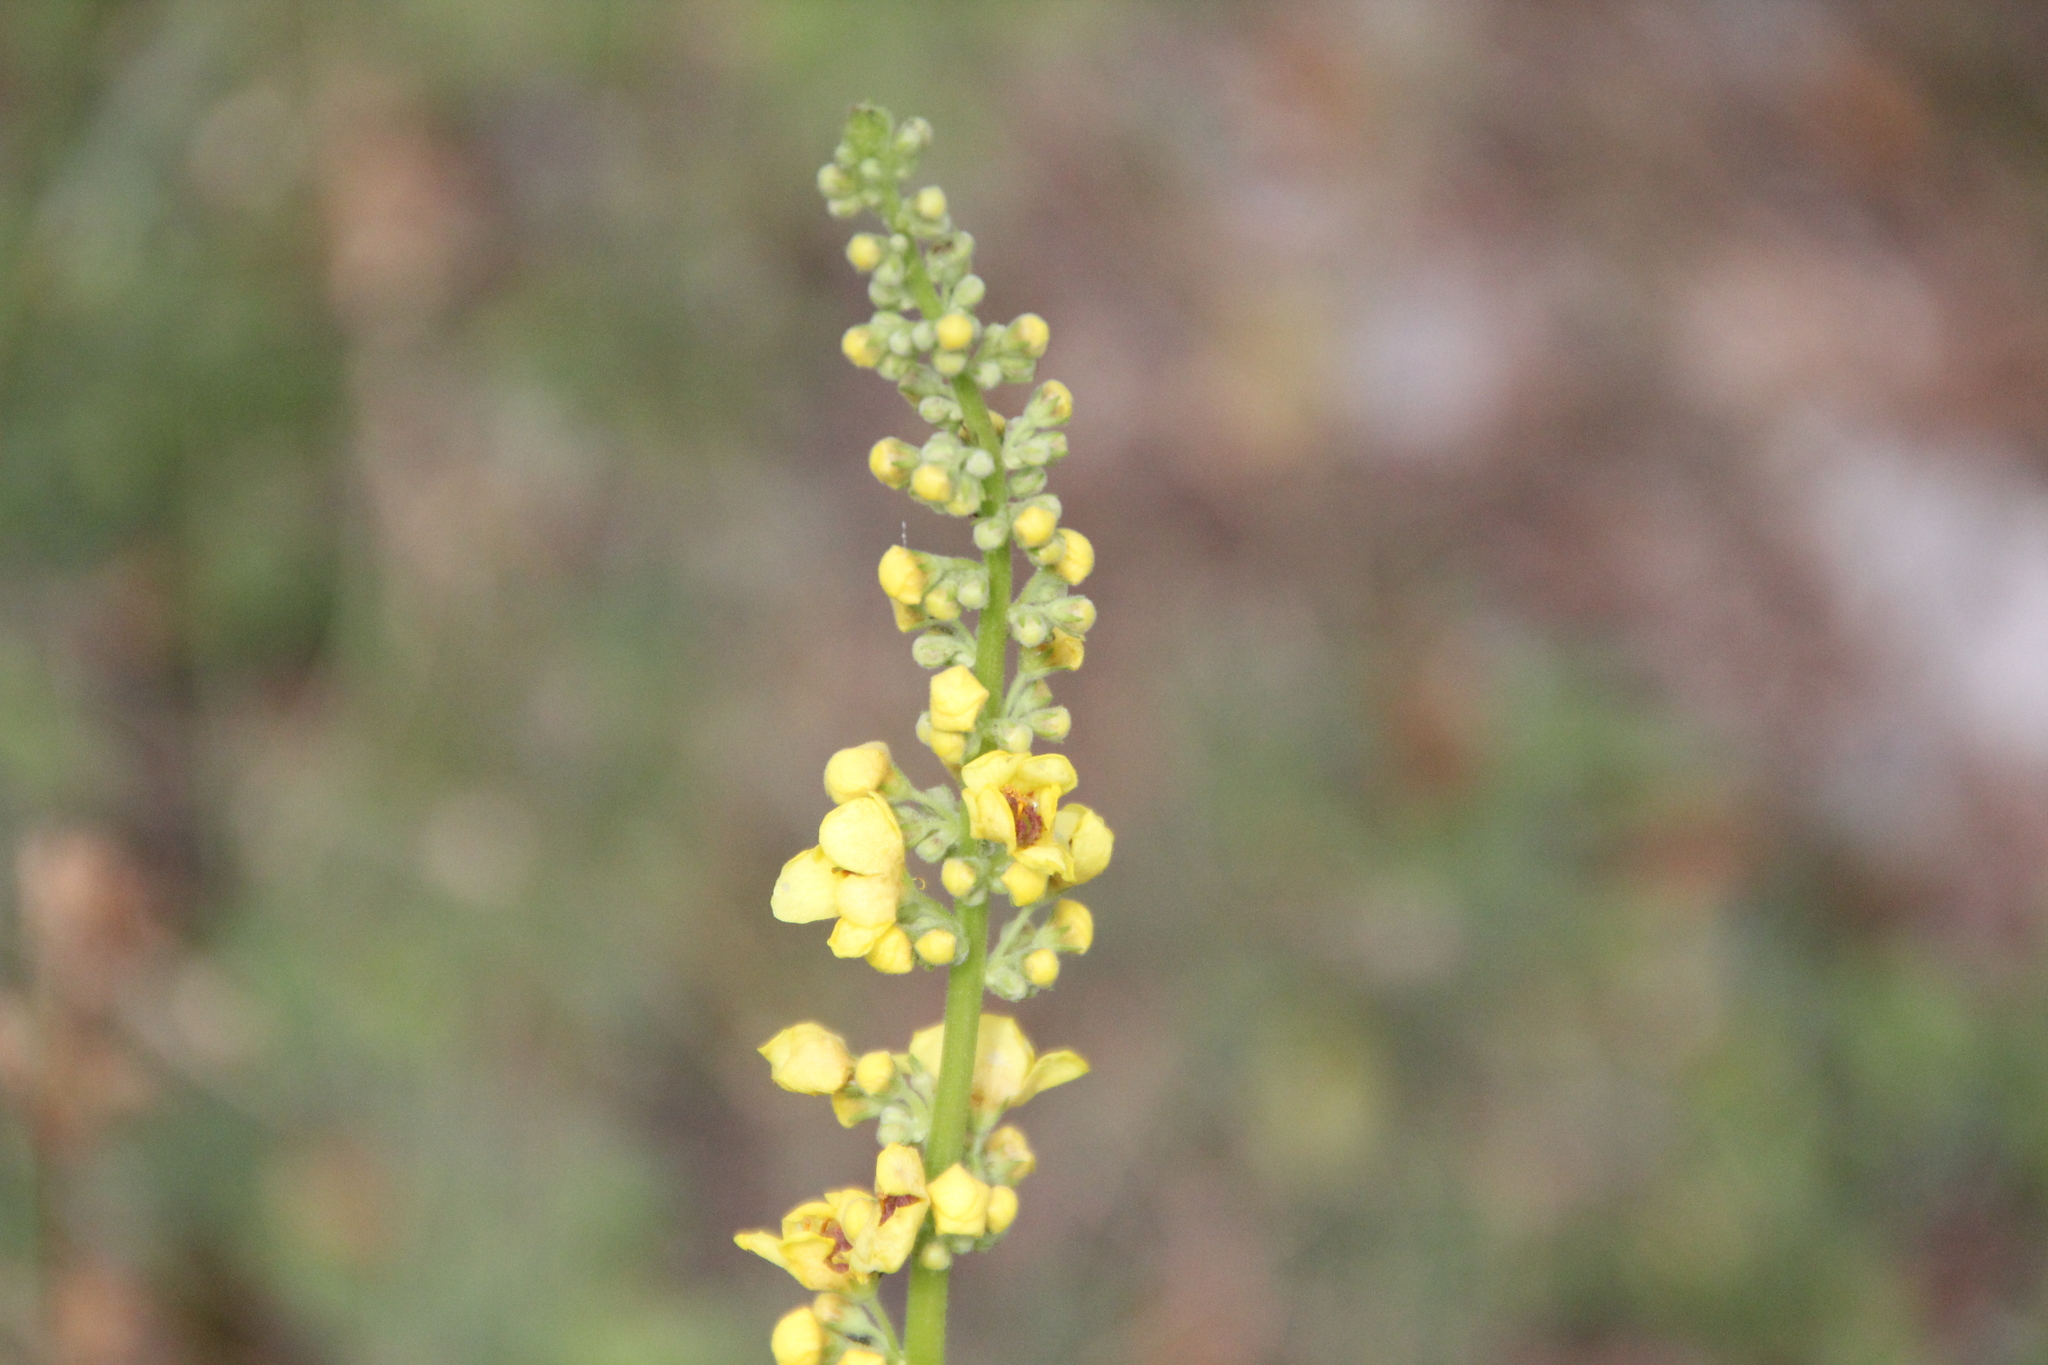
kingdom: Plantae
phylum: Tracheophyta
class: Magnoliopsida
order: Lamiales
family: Scrophulariaceae
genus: Verbascum
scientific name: Verbascum nigrum
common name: Dark mullein
